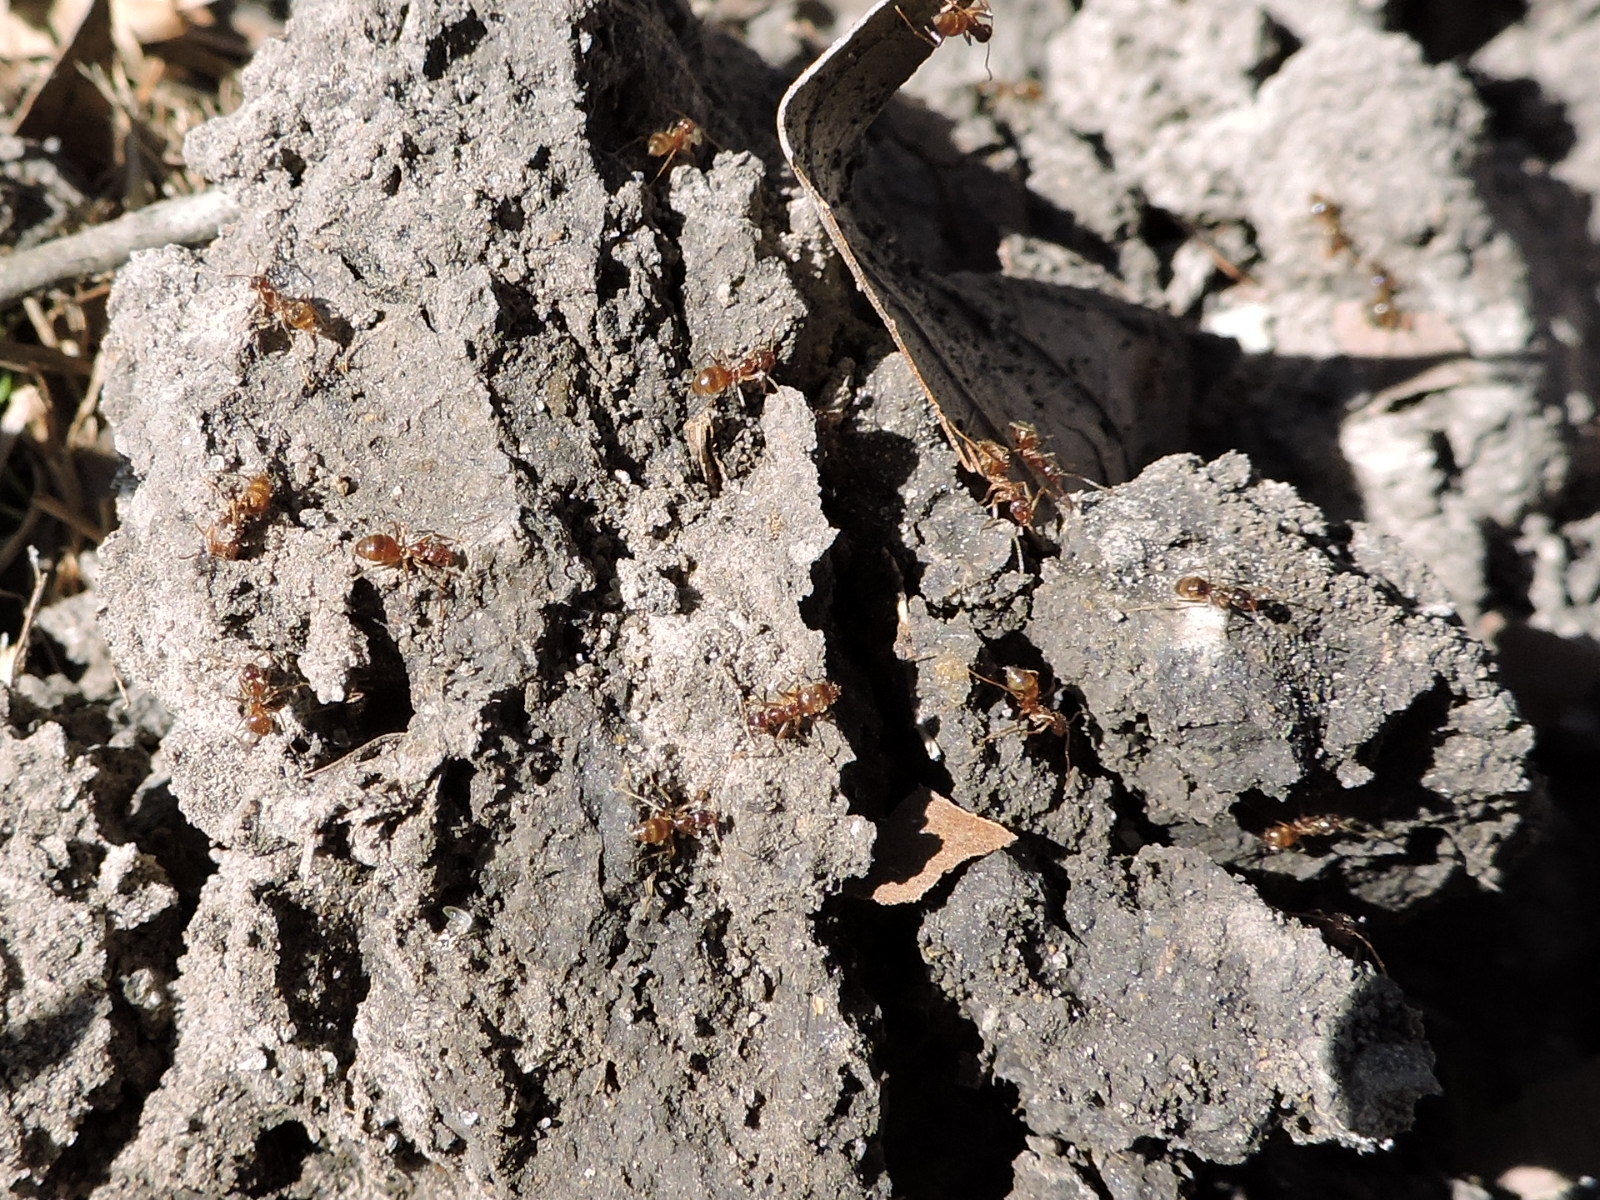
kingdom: Animalia
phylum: Arthropoda
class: Insecta
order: Hymenoptera
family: Formicidae
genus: Paratrechina
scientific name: Paratrechina fulva
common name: Tawny crazy ant
